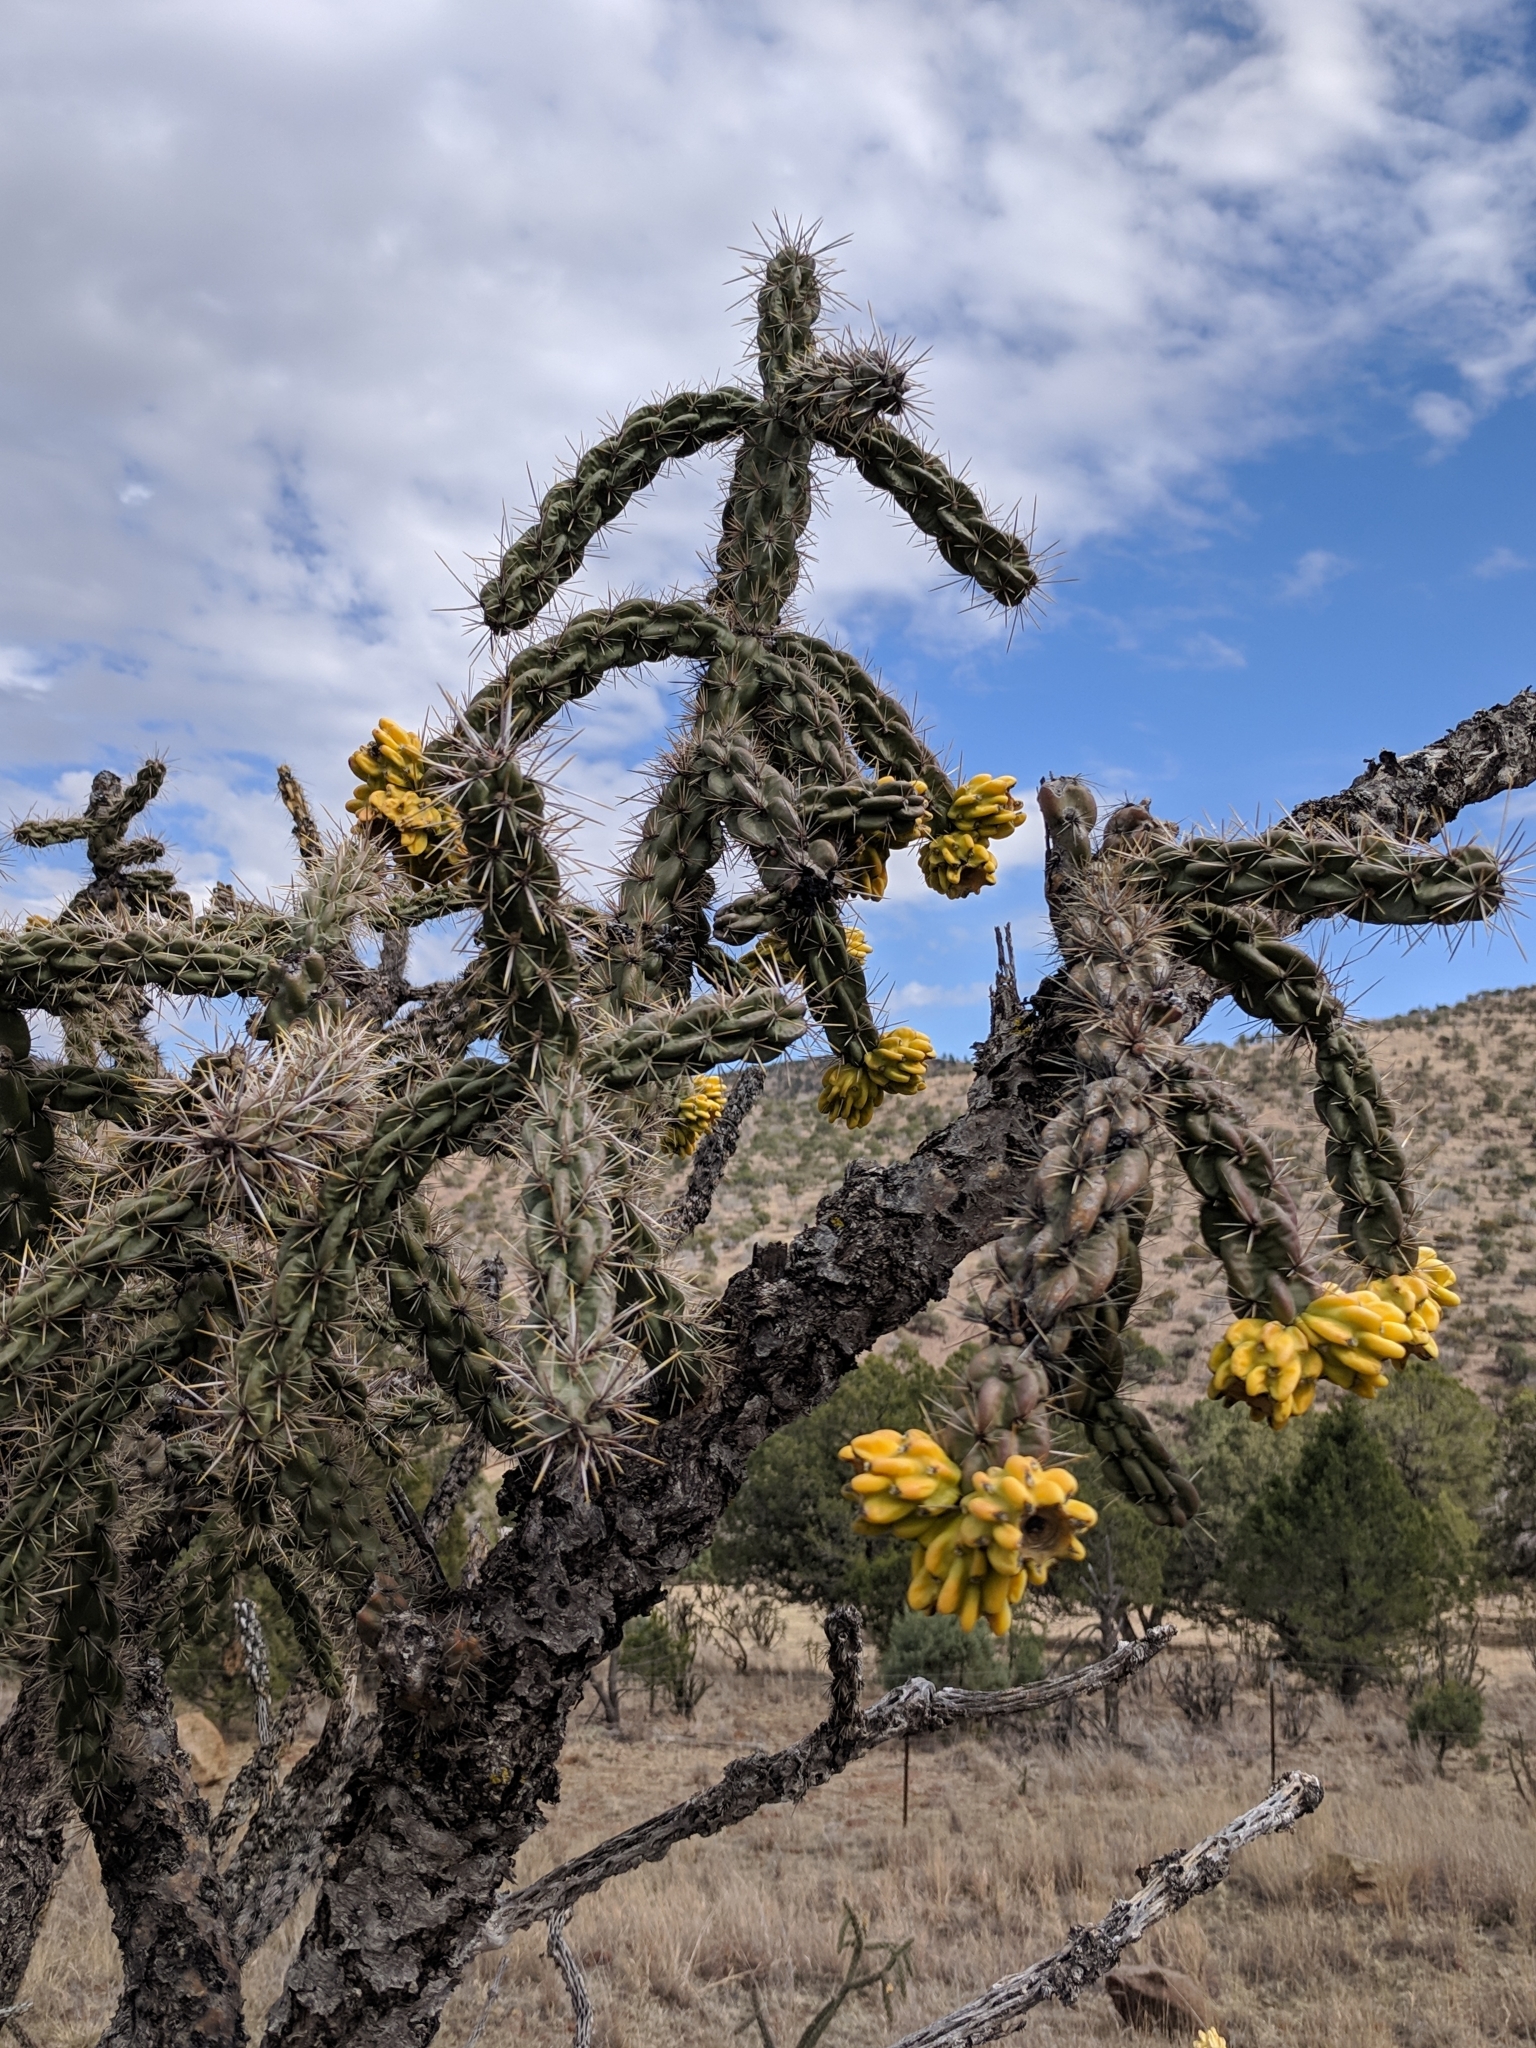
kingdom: Plantae
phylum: Tracheophyta
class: Magnoliopsida
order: Caryophyllales
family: Cactaceae
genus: Cylindropuntia
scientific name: Cylindropuntia imbricata
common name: Candelabrum cactus
